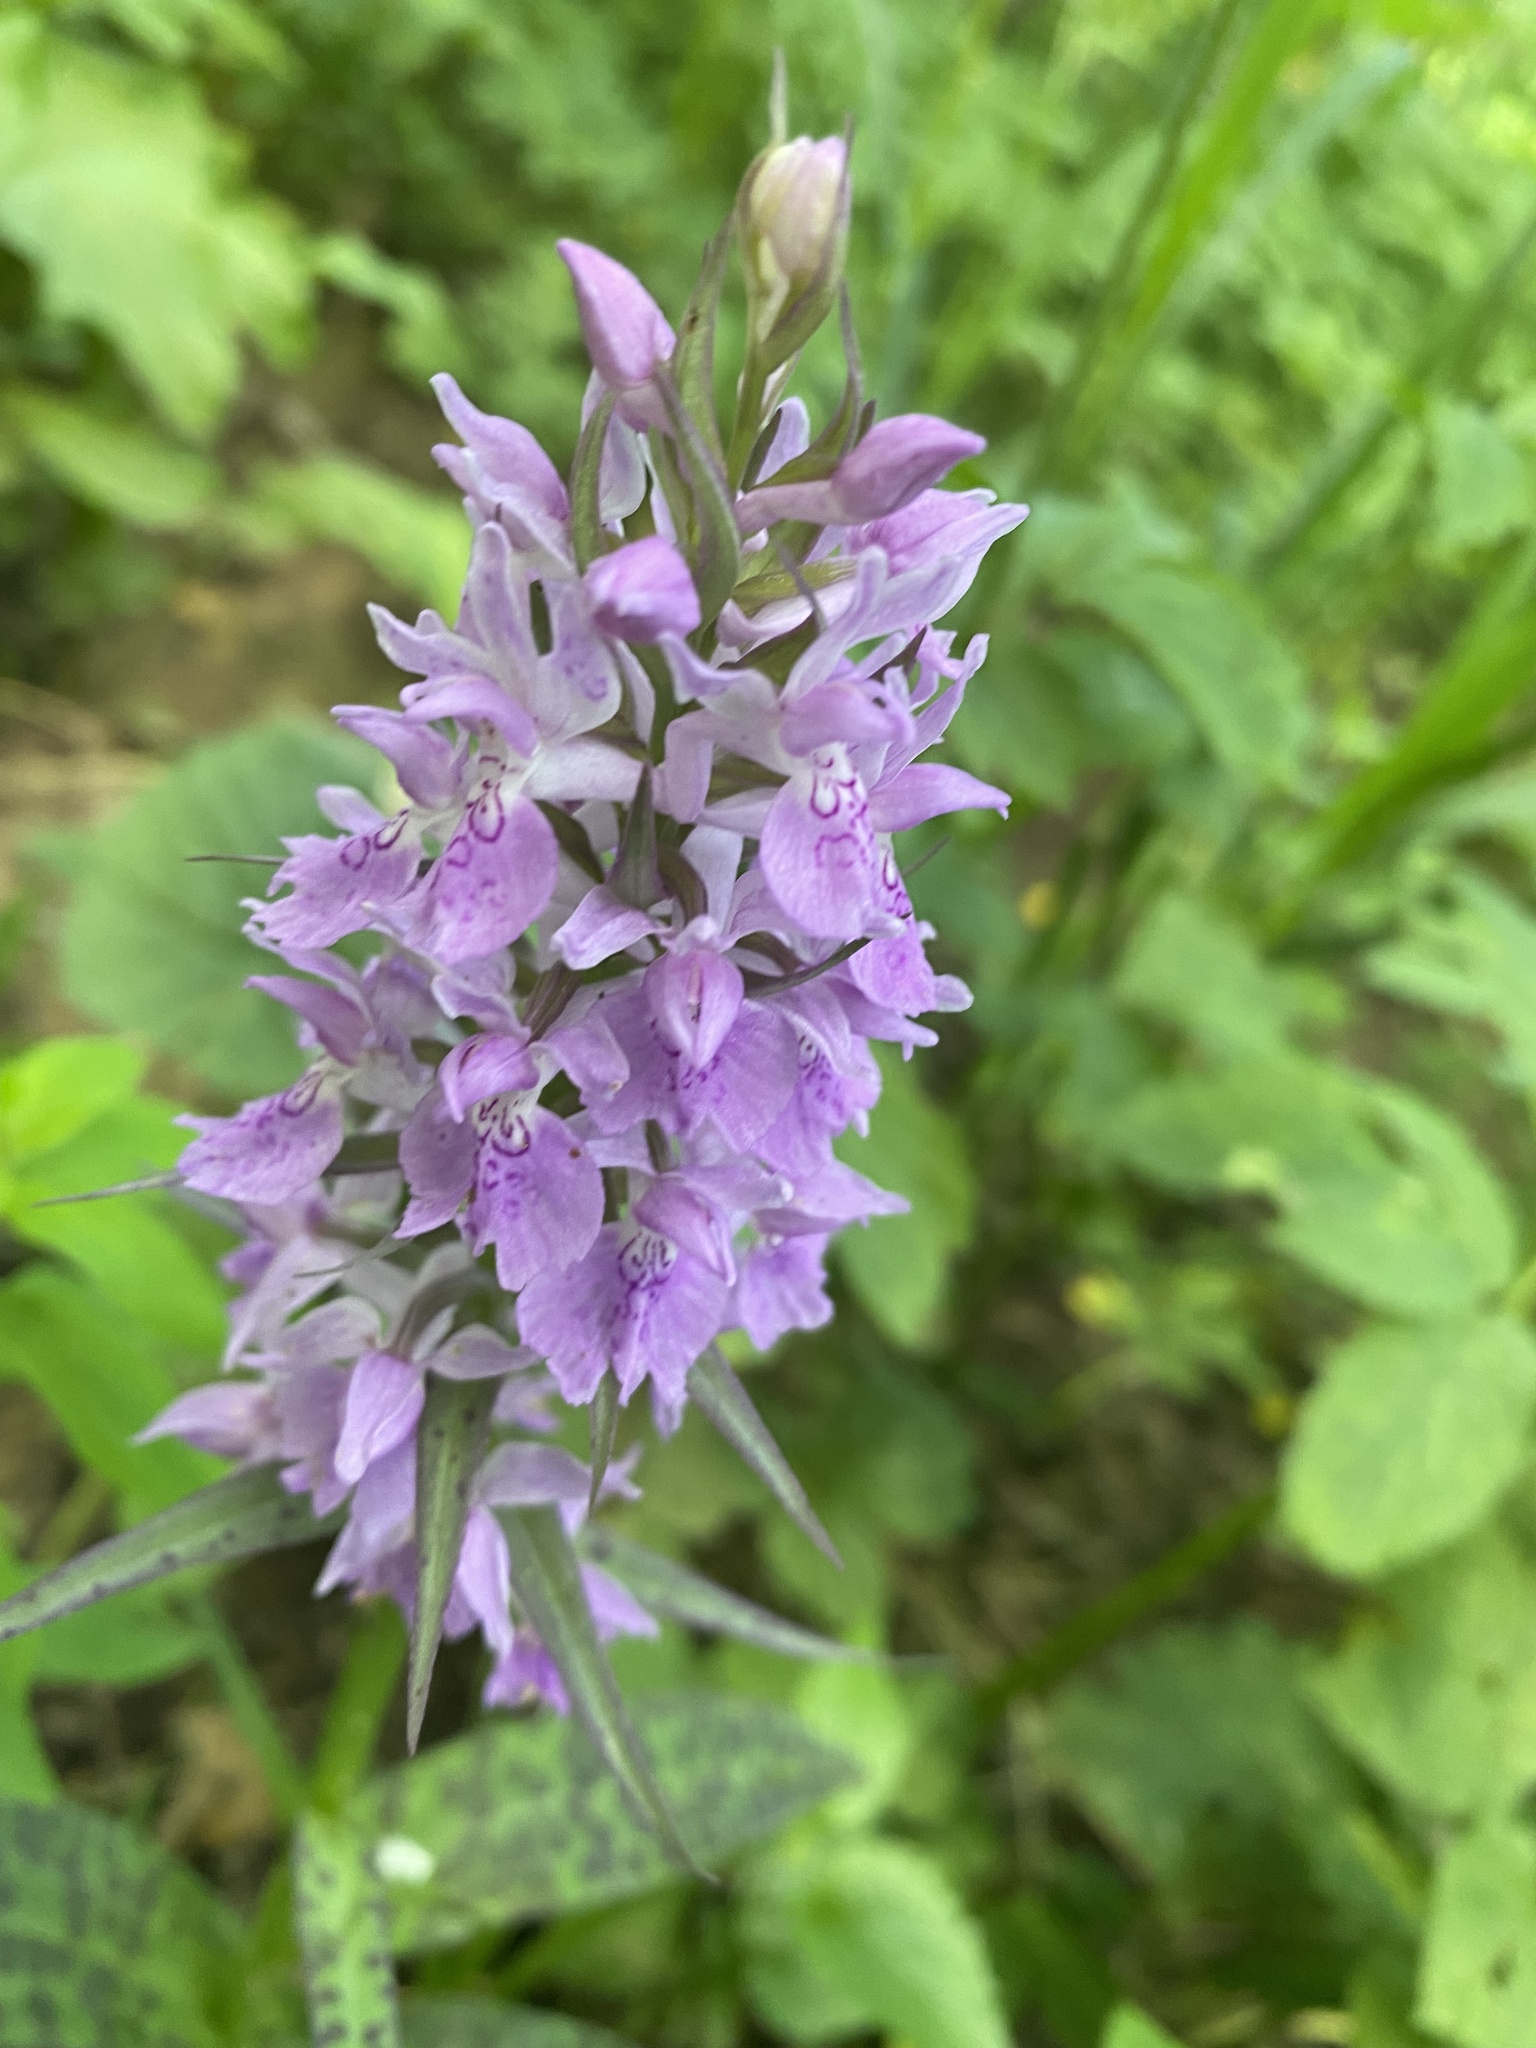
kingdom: Plantae
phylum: Tracheophyta
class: Liliopsida
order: Asparagales
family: Orchidaceae
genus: Dactylorhiza
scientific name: Dactylorhiza urvilleana
